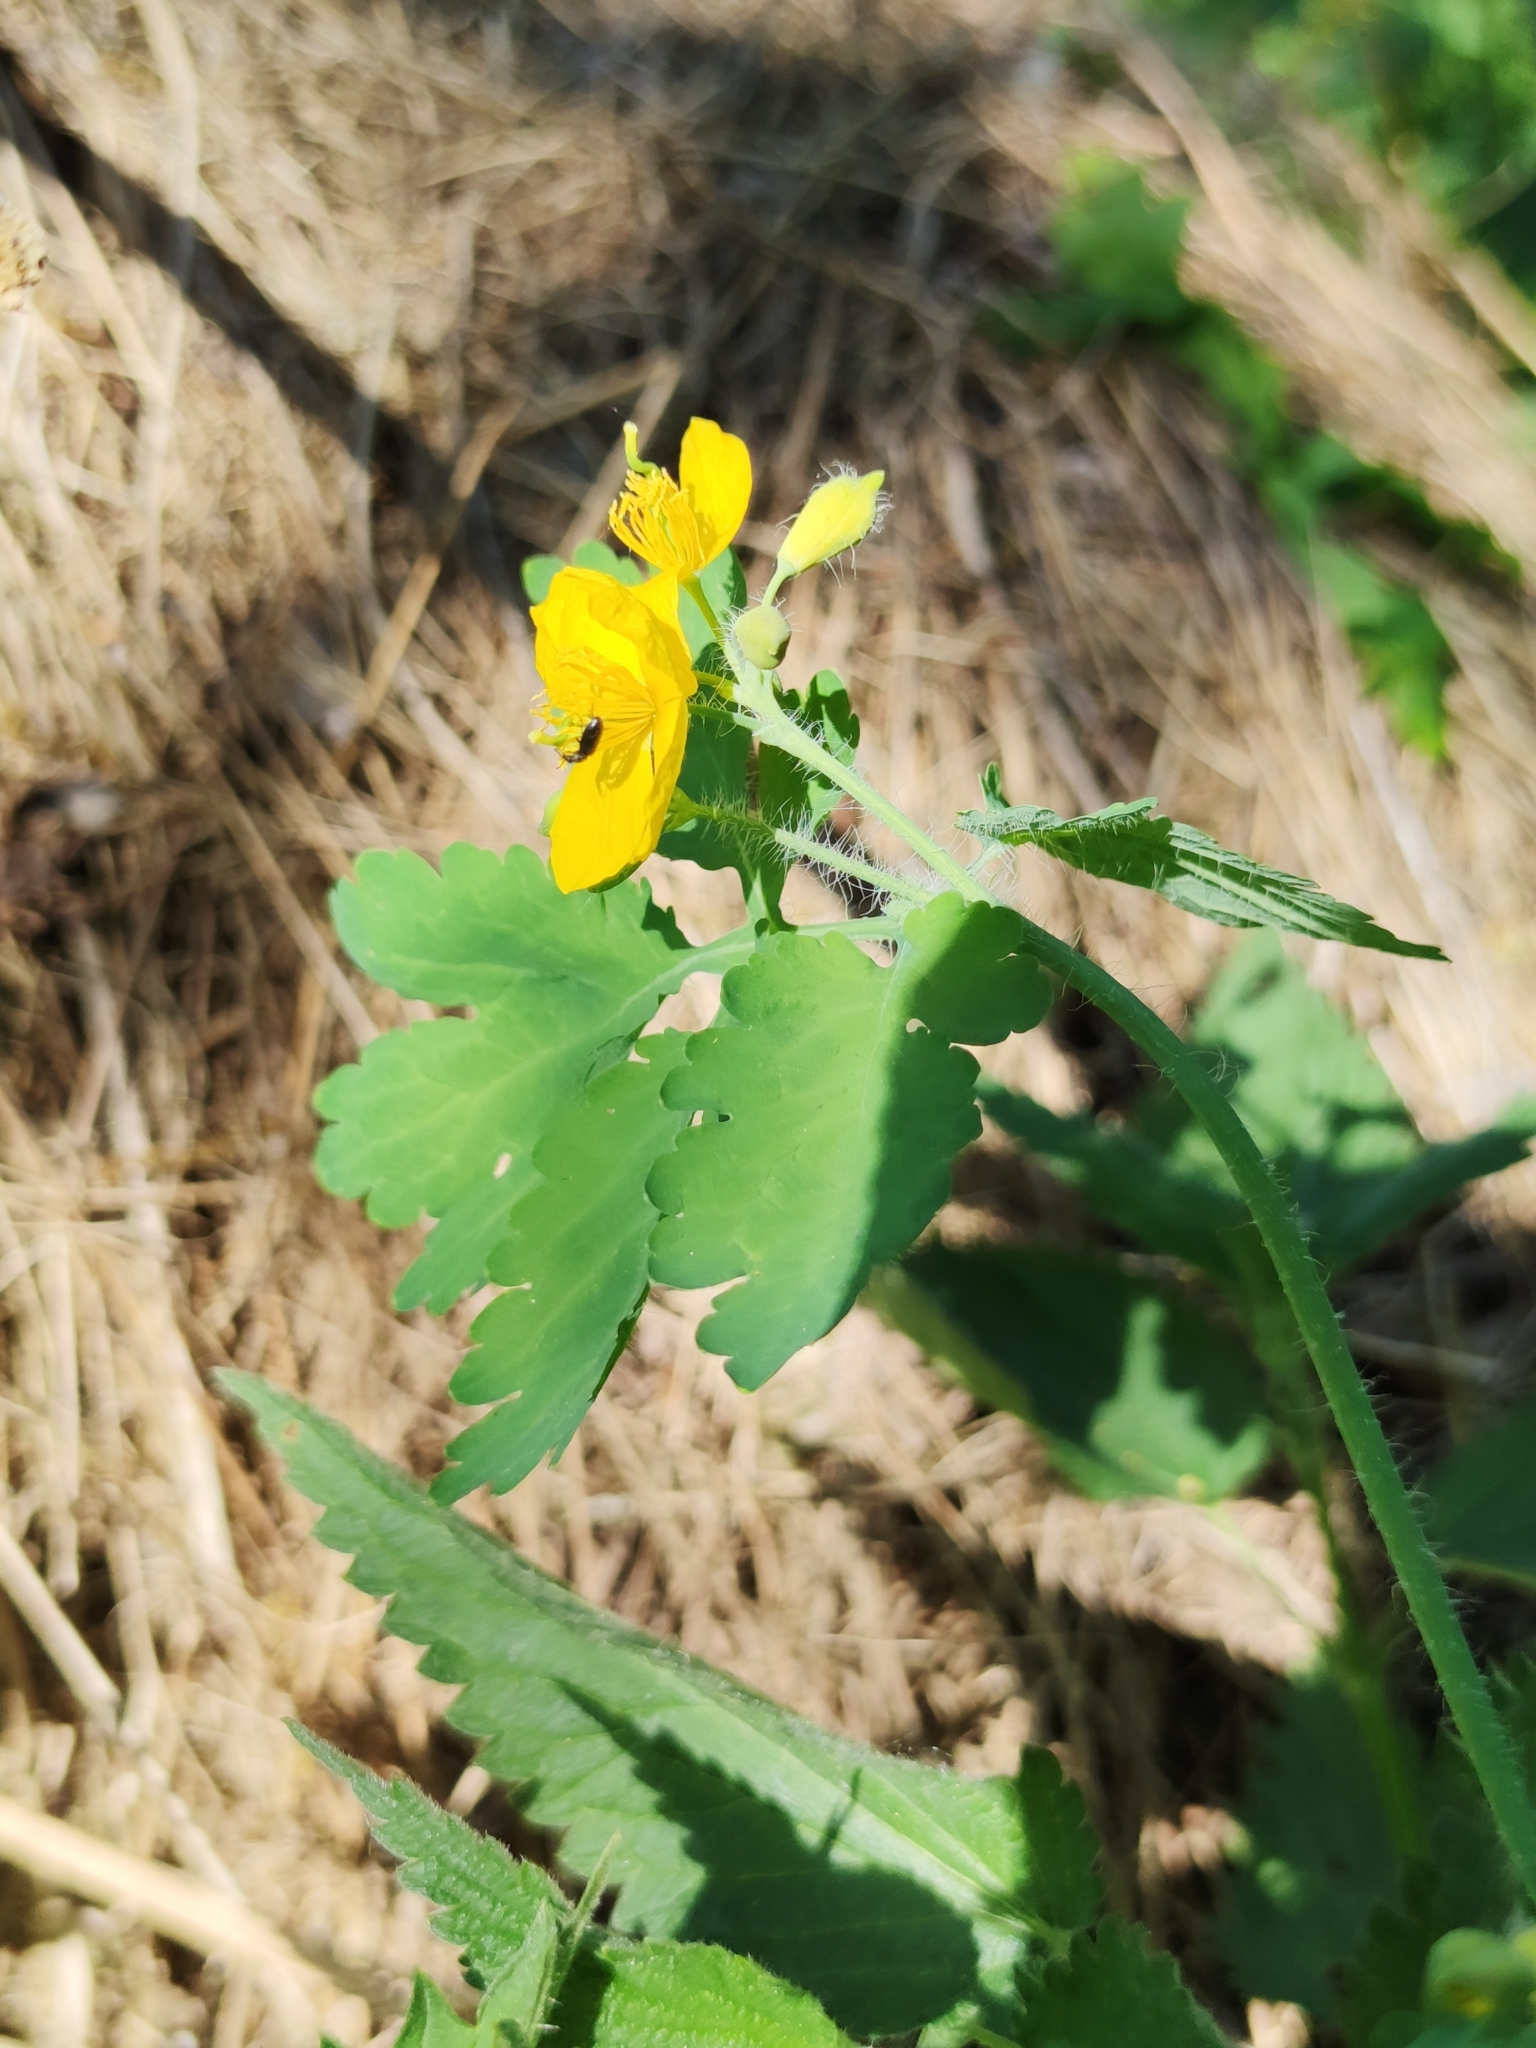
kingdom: Plantae
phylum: Tracheophyta
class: Magnoliopsida
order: Ranunculales
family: Papaveraceae
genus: Chelidonium
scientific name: Chelidonium majus
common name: Greater celandine
